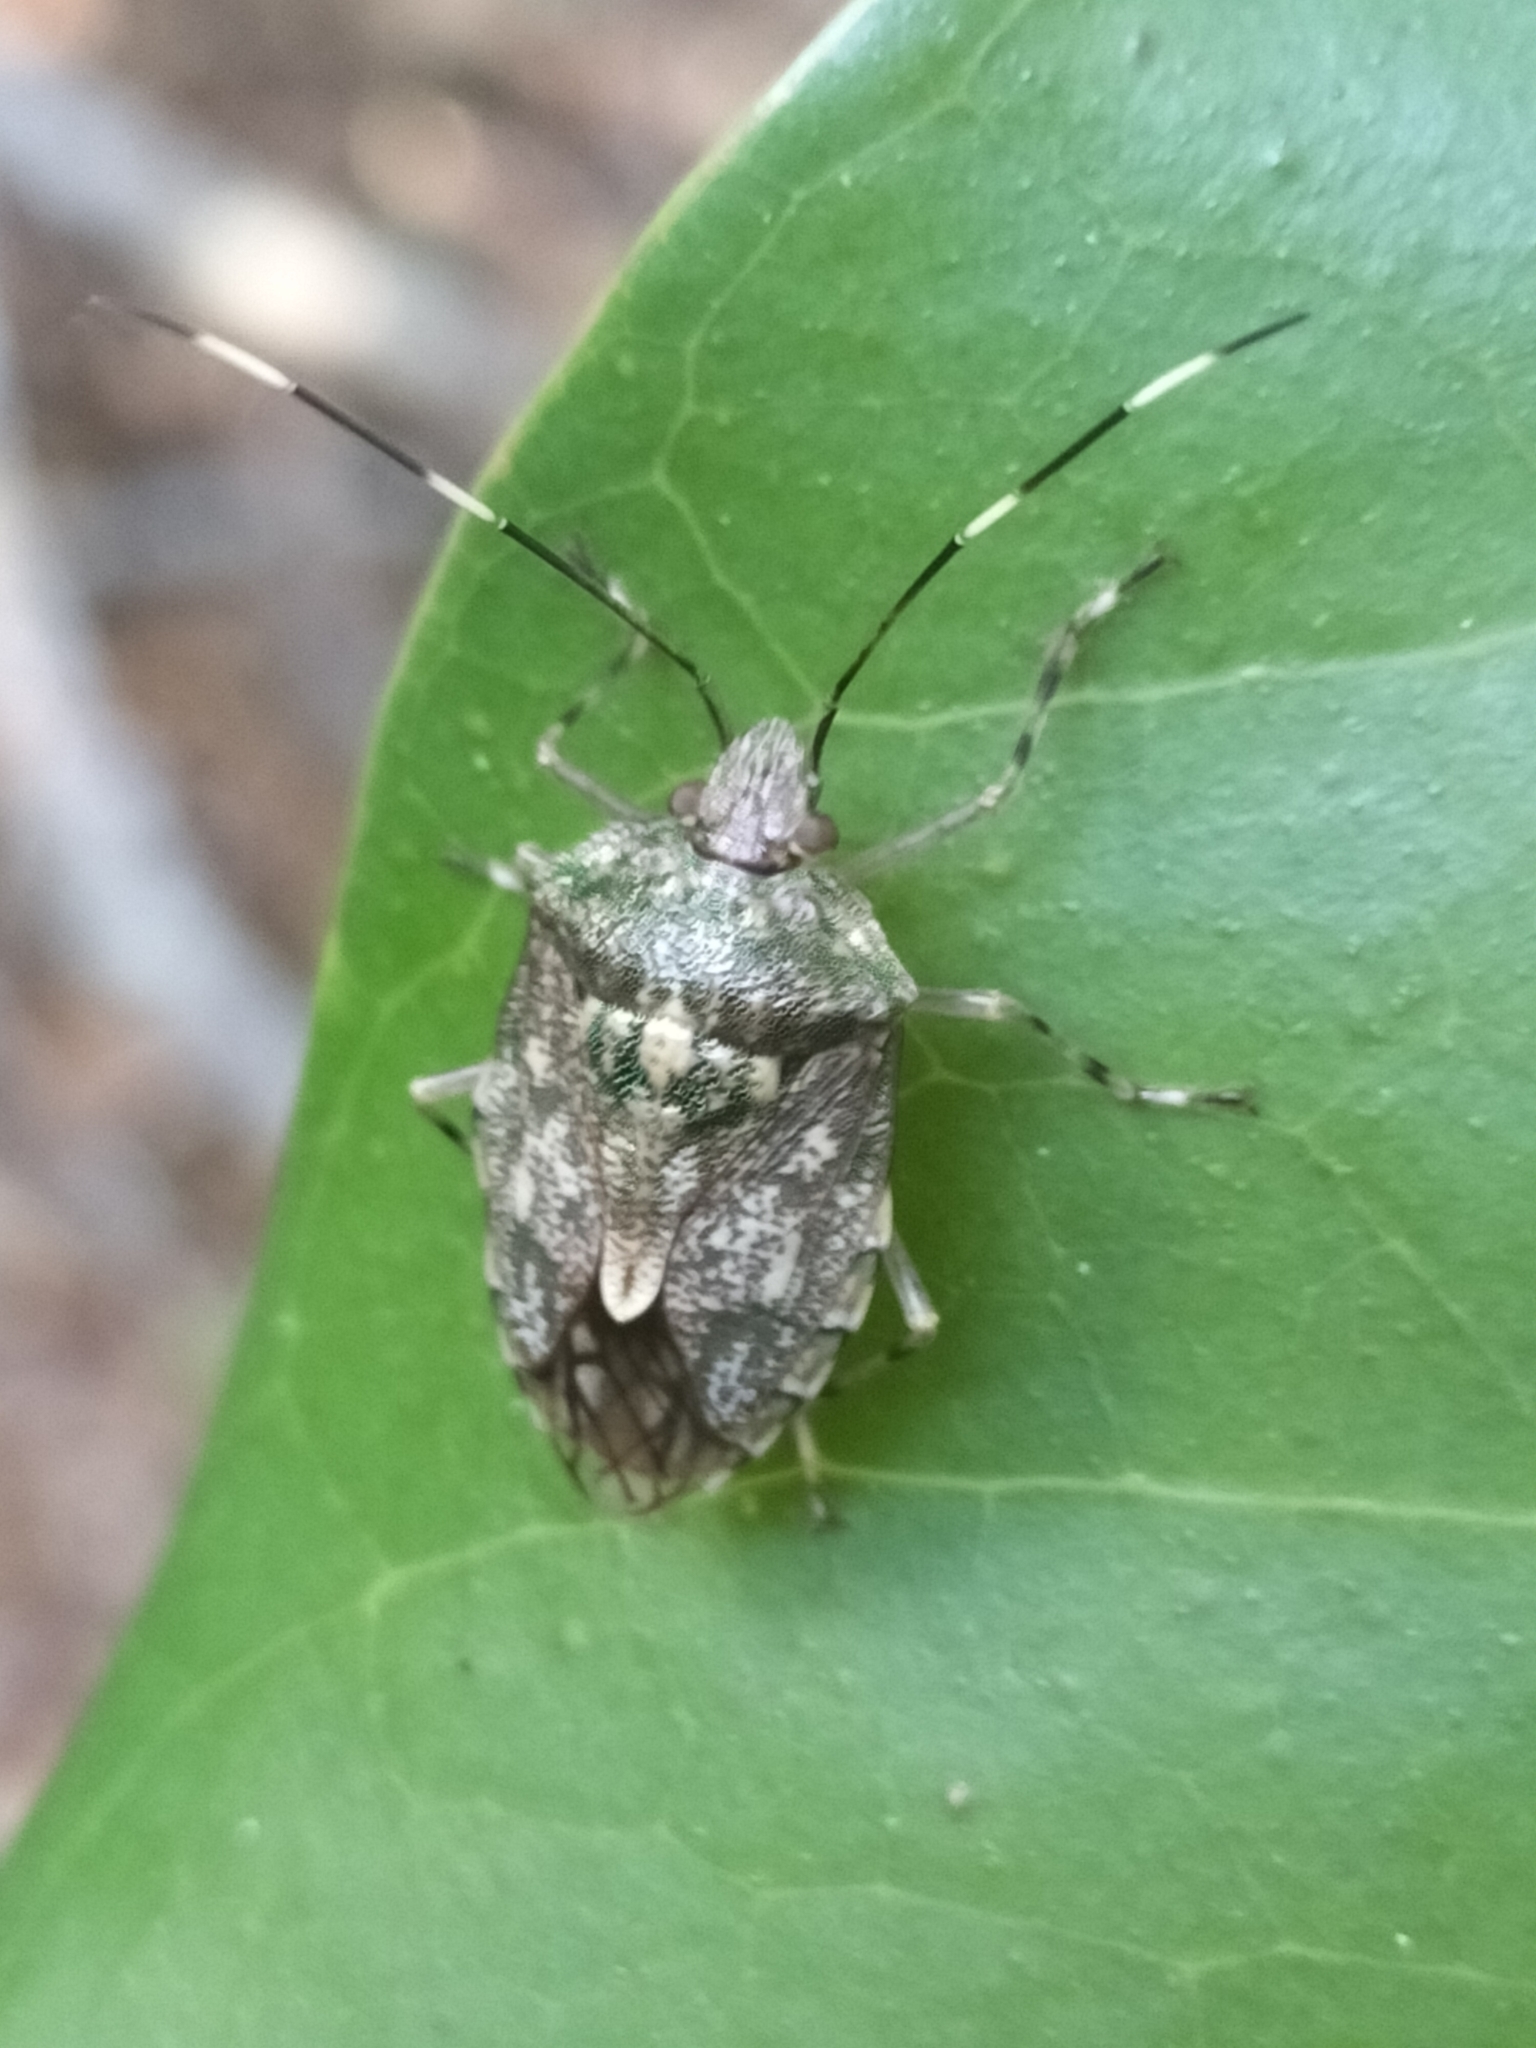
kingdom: Animalia
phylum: Arthropoda
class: Insecta
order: Hemiptera
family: Pentatomidae
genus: Bathrus
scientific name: Bathrus
